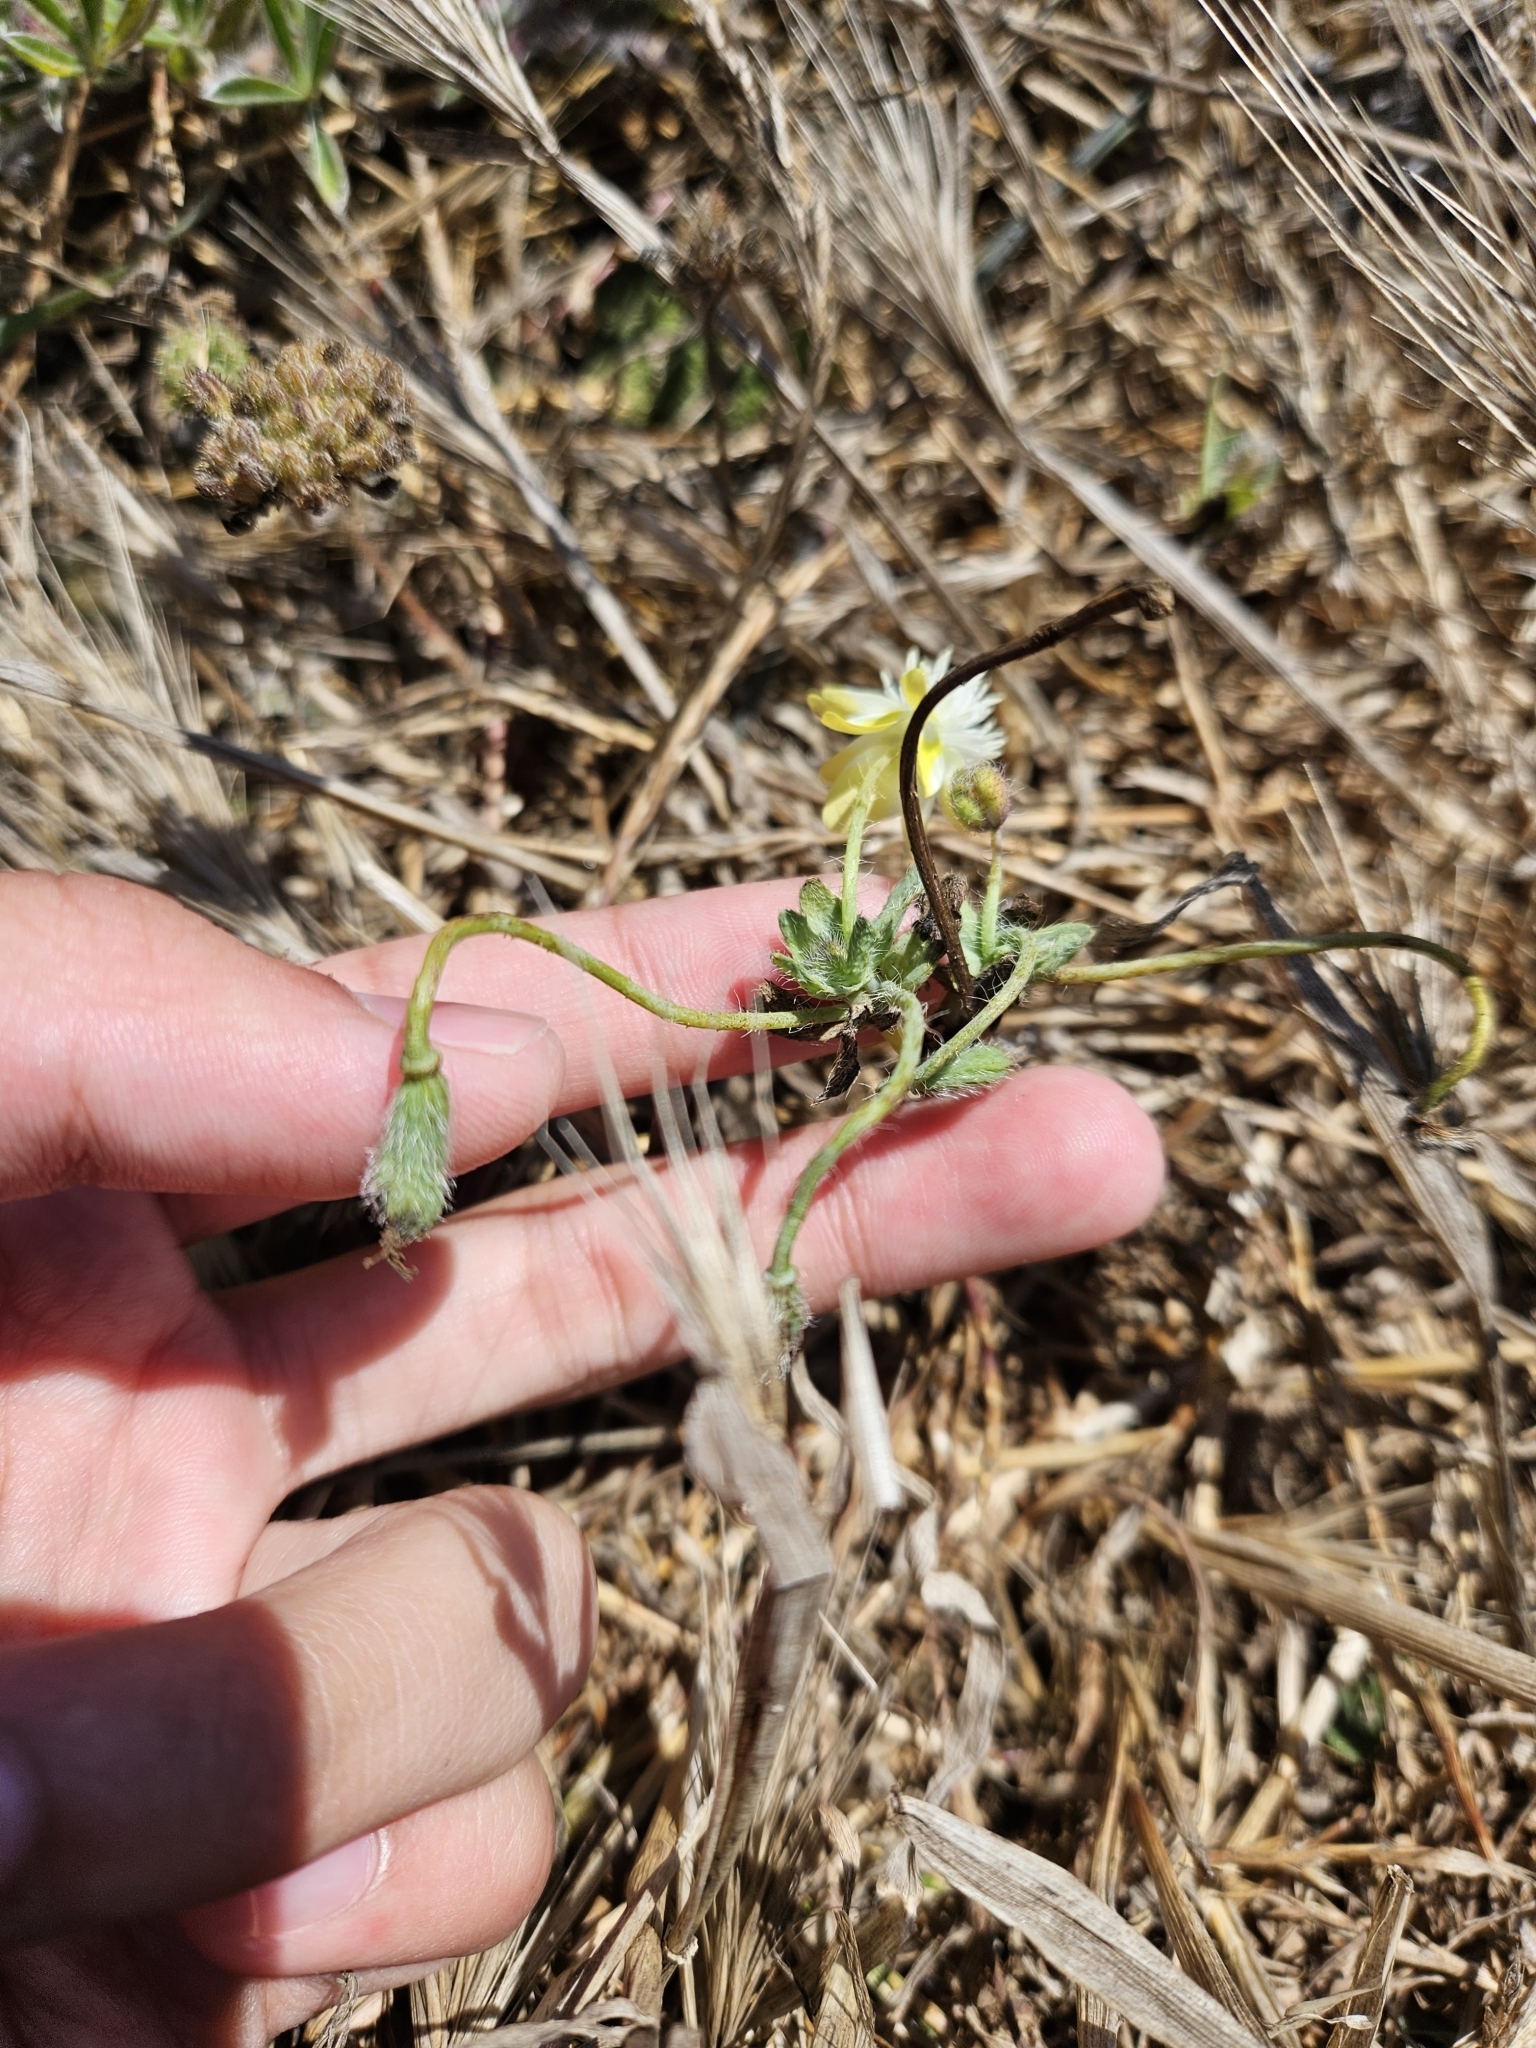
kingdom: Plantae
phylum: Tracheophyta
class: Magnoliopsida
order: Ranunculales
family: Papaveraceae
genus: Platystemon
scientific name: Platystemon californicus
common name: Cream-cups
